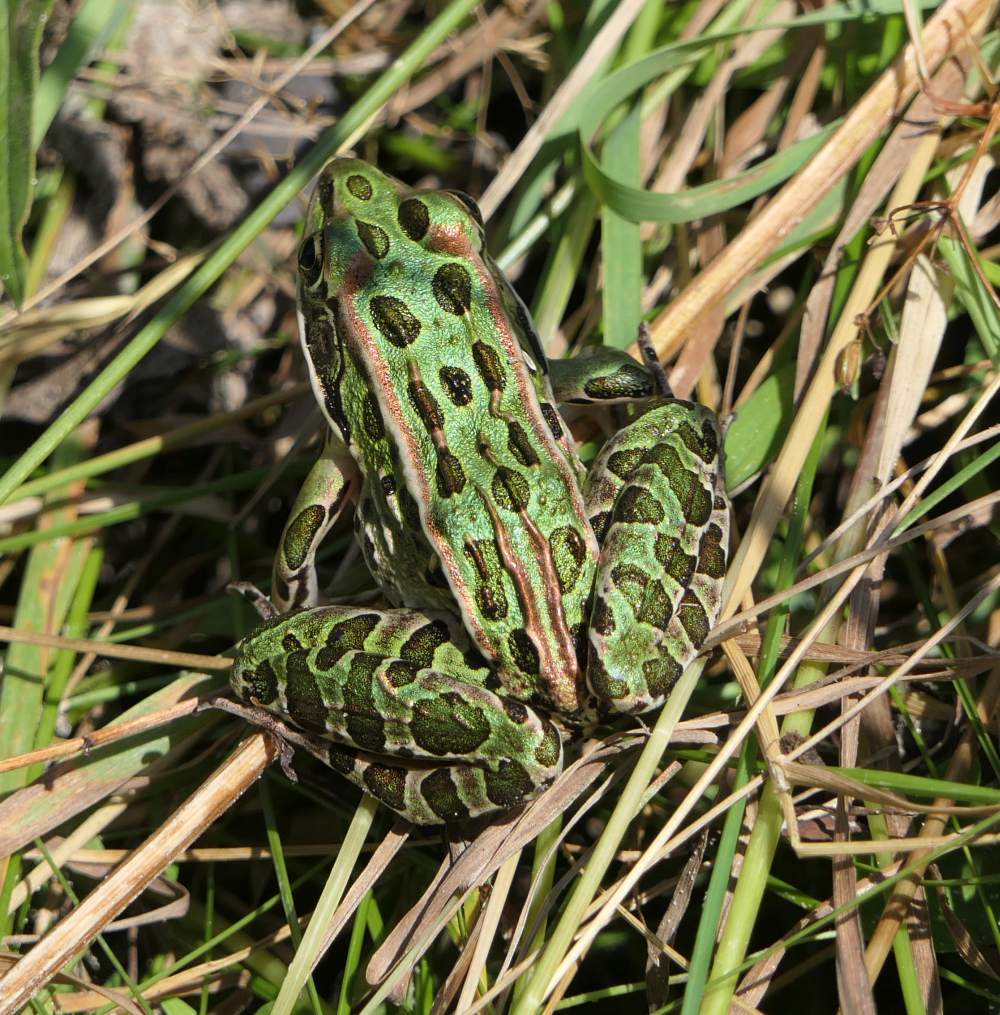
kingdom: Animalia
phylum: Chordata
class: Amphibia
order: Anura
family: Ranidae
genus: Lithobates
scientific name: Lithobates pipiens
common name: Northern leopard frog
